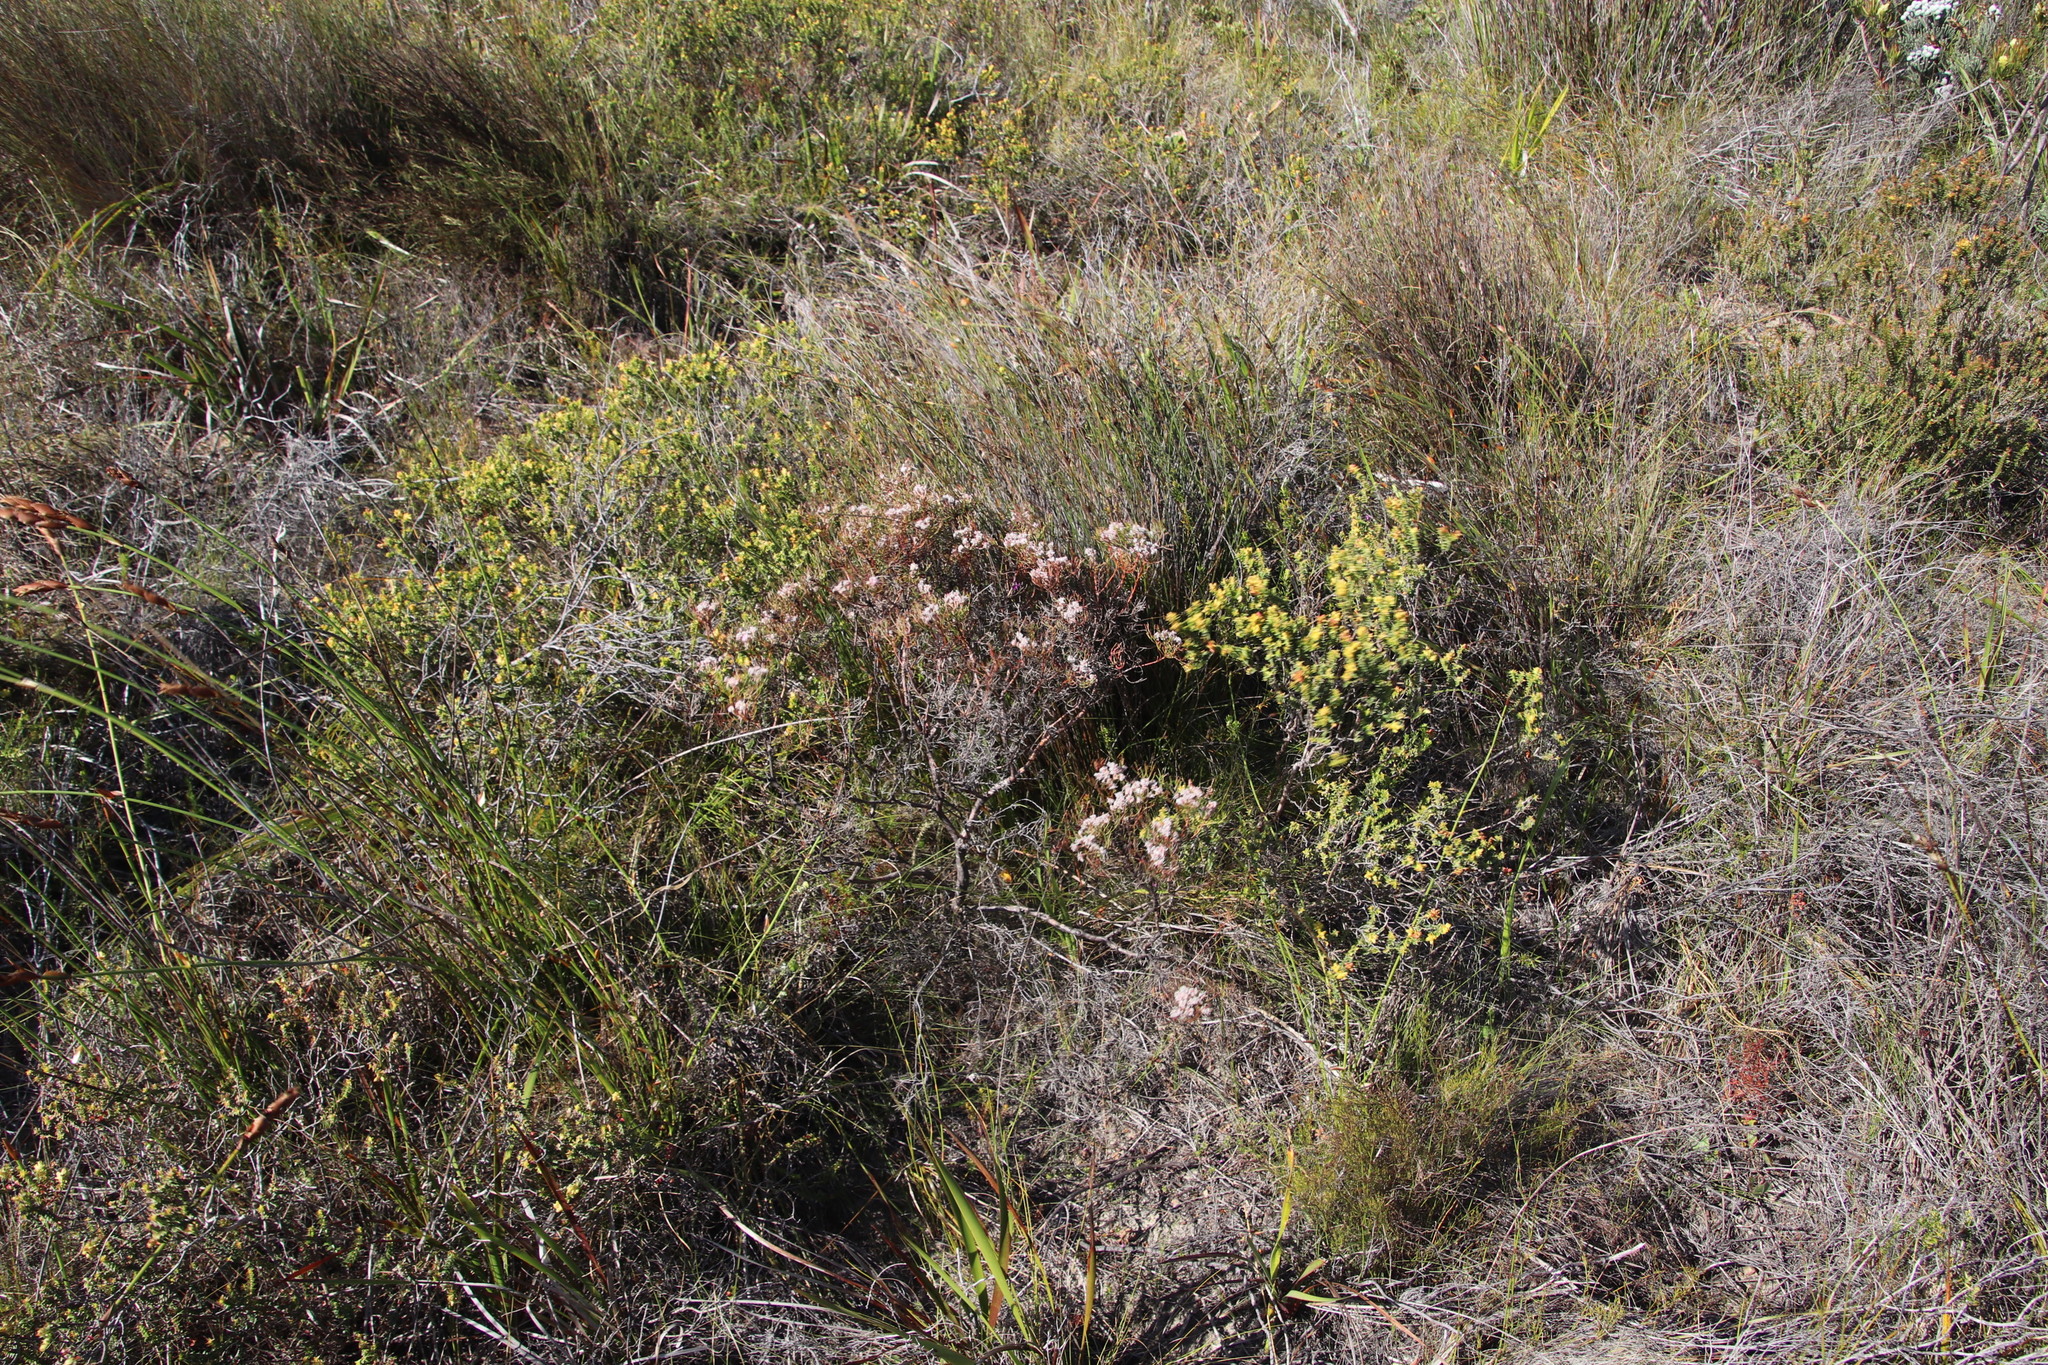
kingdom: Plantae
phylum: Tracheophyta
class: Magnoliopsida
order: Proteales
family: Proteaceae
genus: Serruria
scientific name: Serruria fasciflora
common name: Common pin spiderhead
